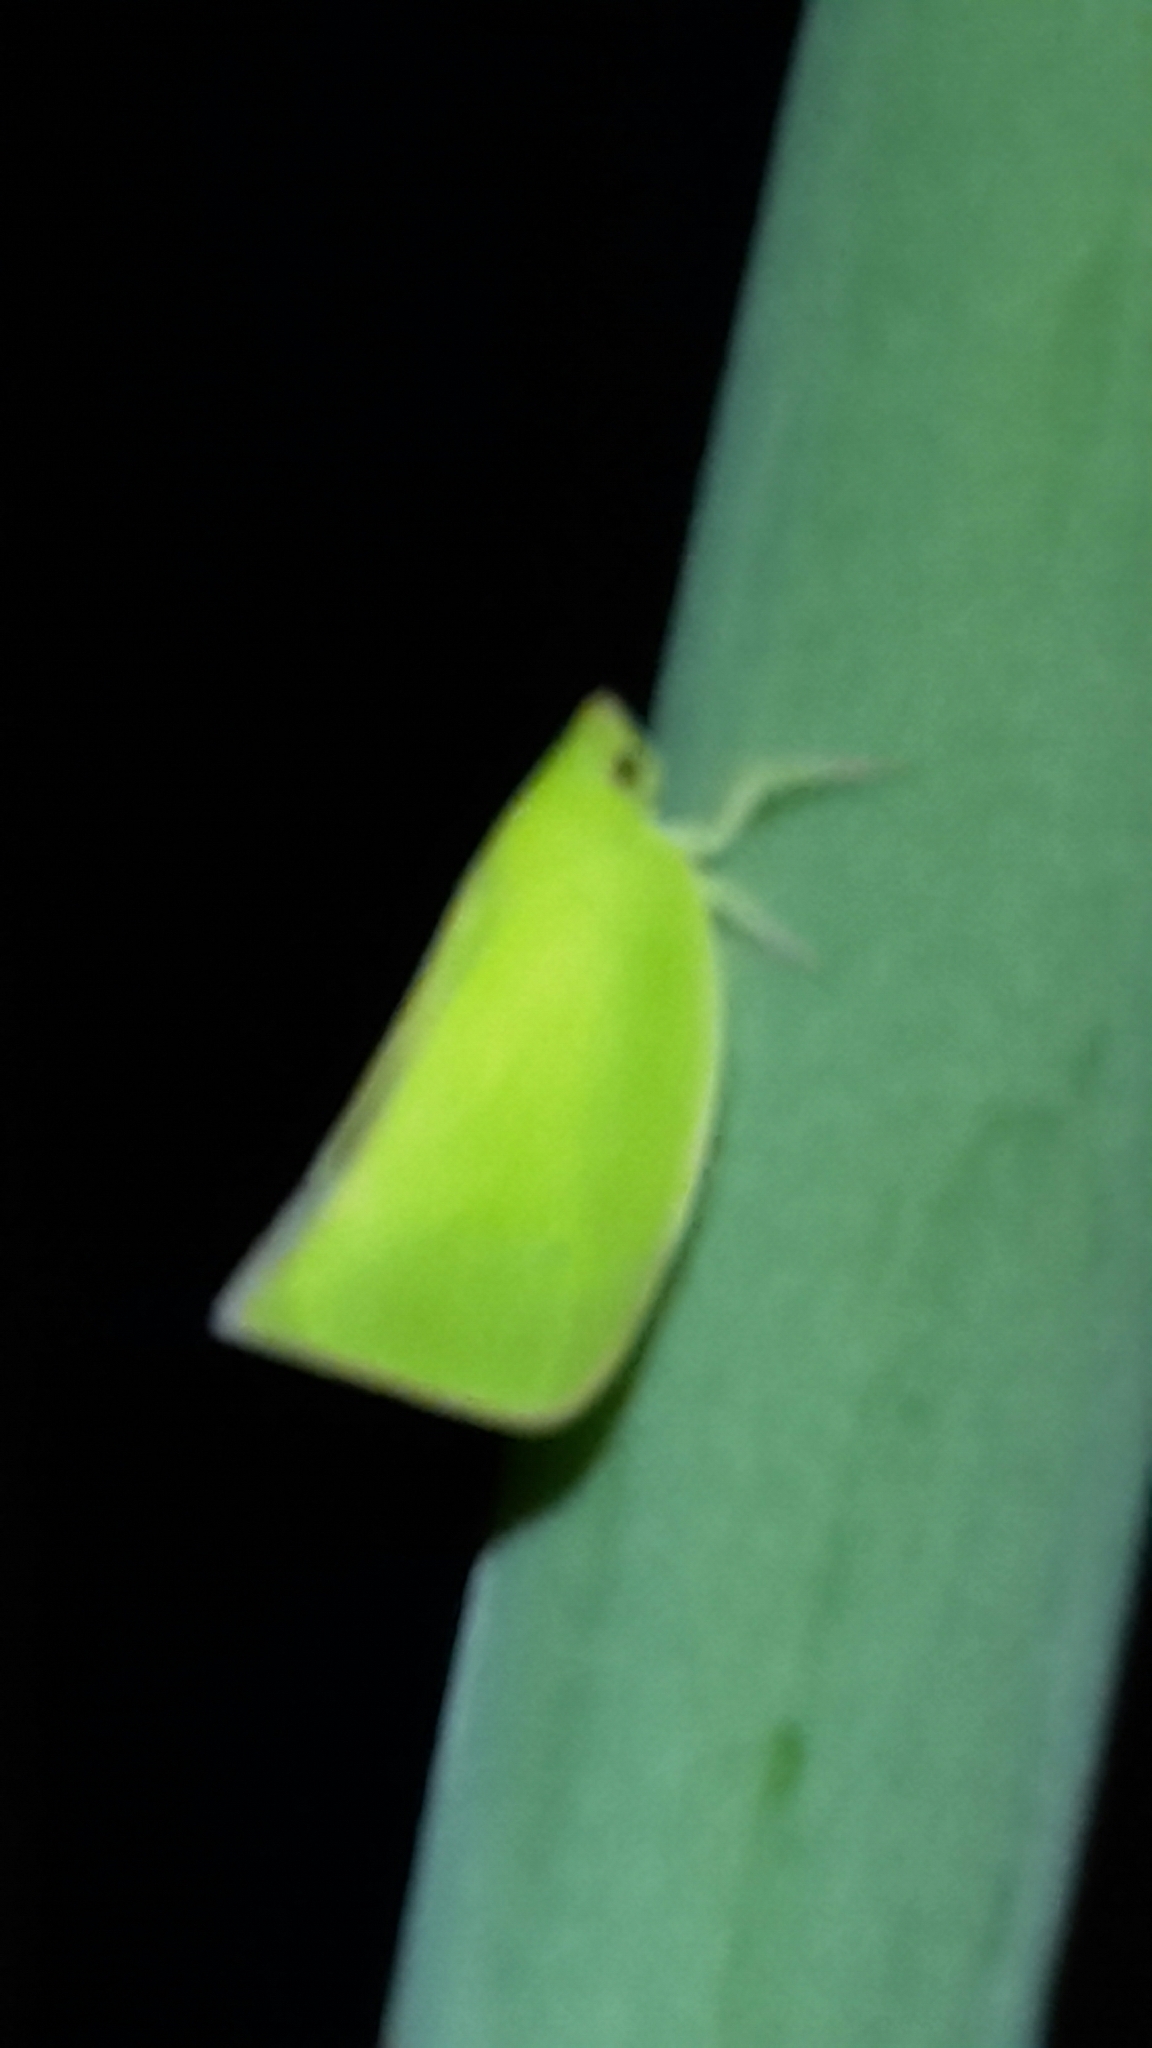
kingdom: Animalia
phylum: Arthropoda
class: Insecta
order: Hemiptera
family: Flatidae
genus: Siphanta
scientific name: Siphanta acuta
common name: Torpedo bug
